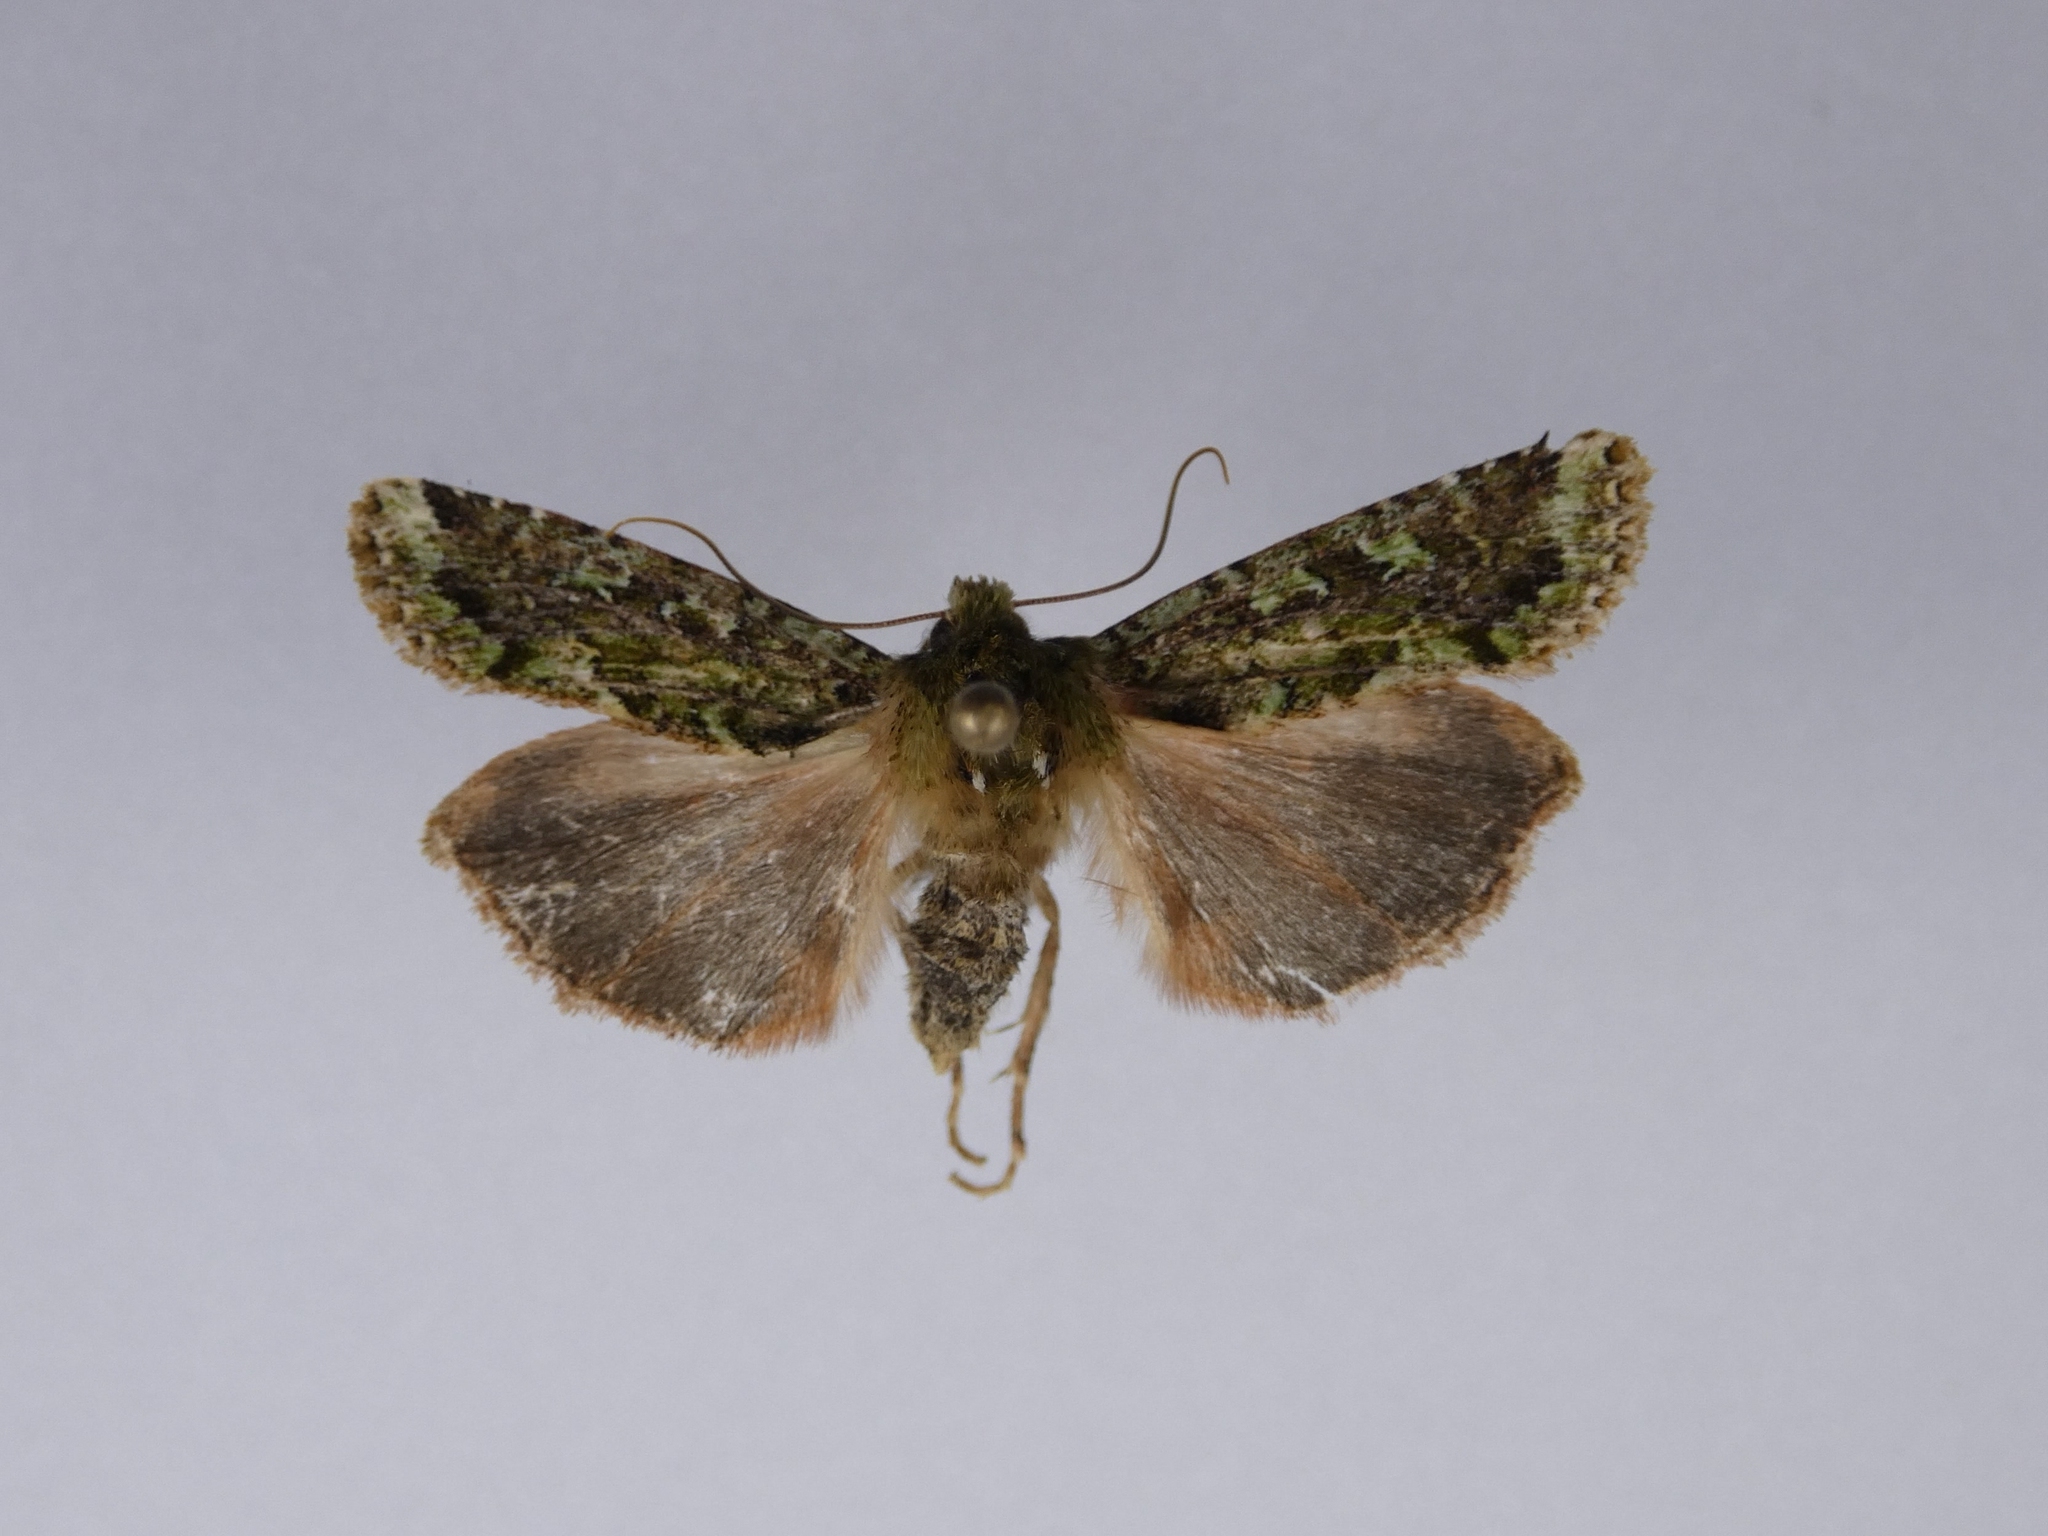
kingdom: Animalia
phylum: Arthropoda
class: Insecta
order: Lepidoptera
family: Noctuidae
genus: Feredayia
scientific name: Feredayia grammosa
